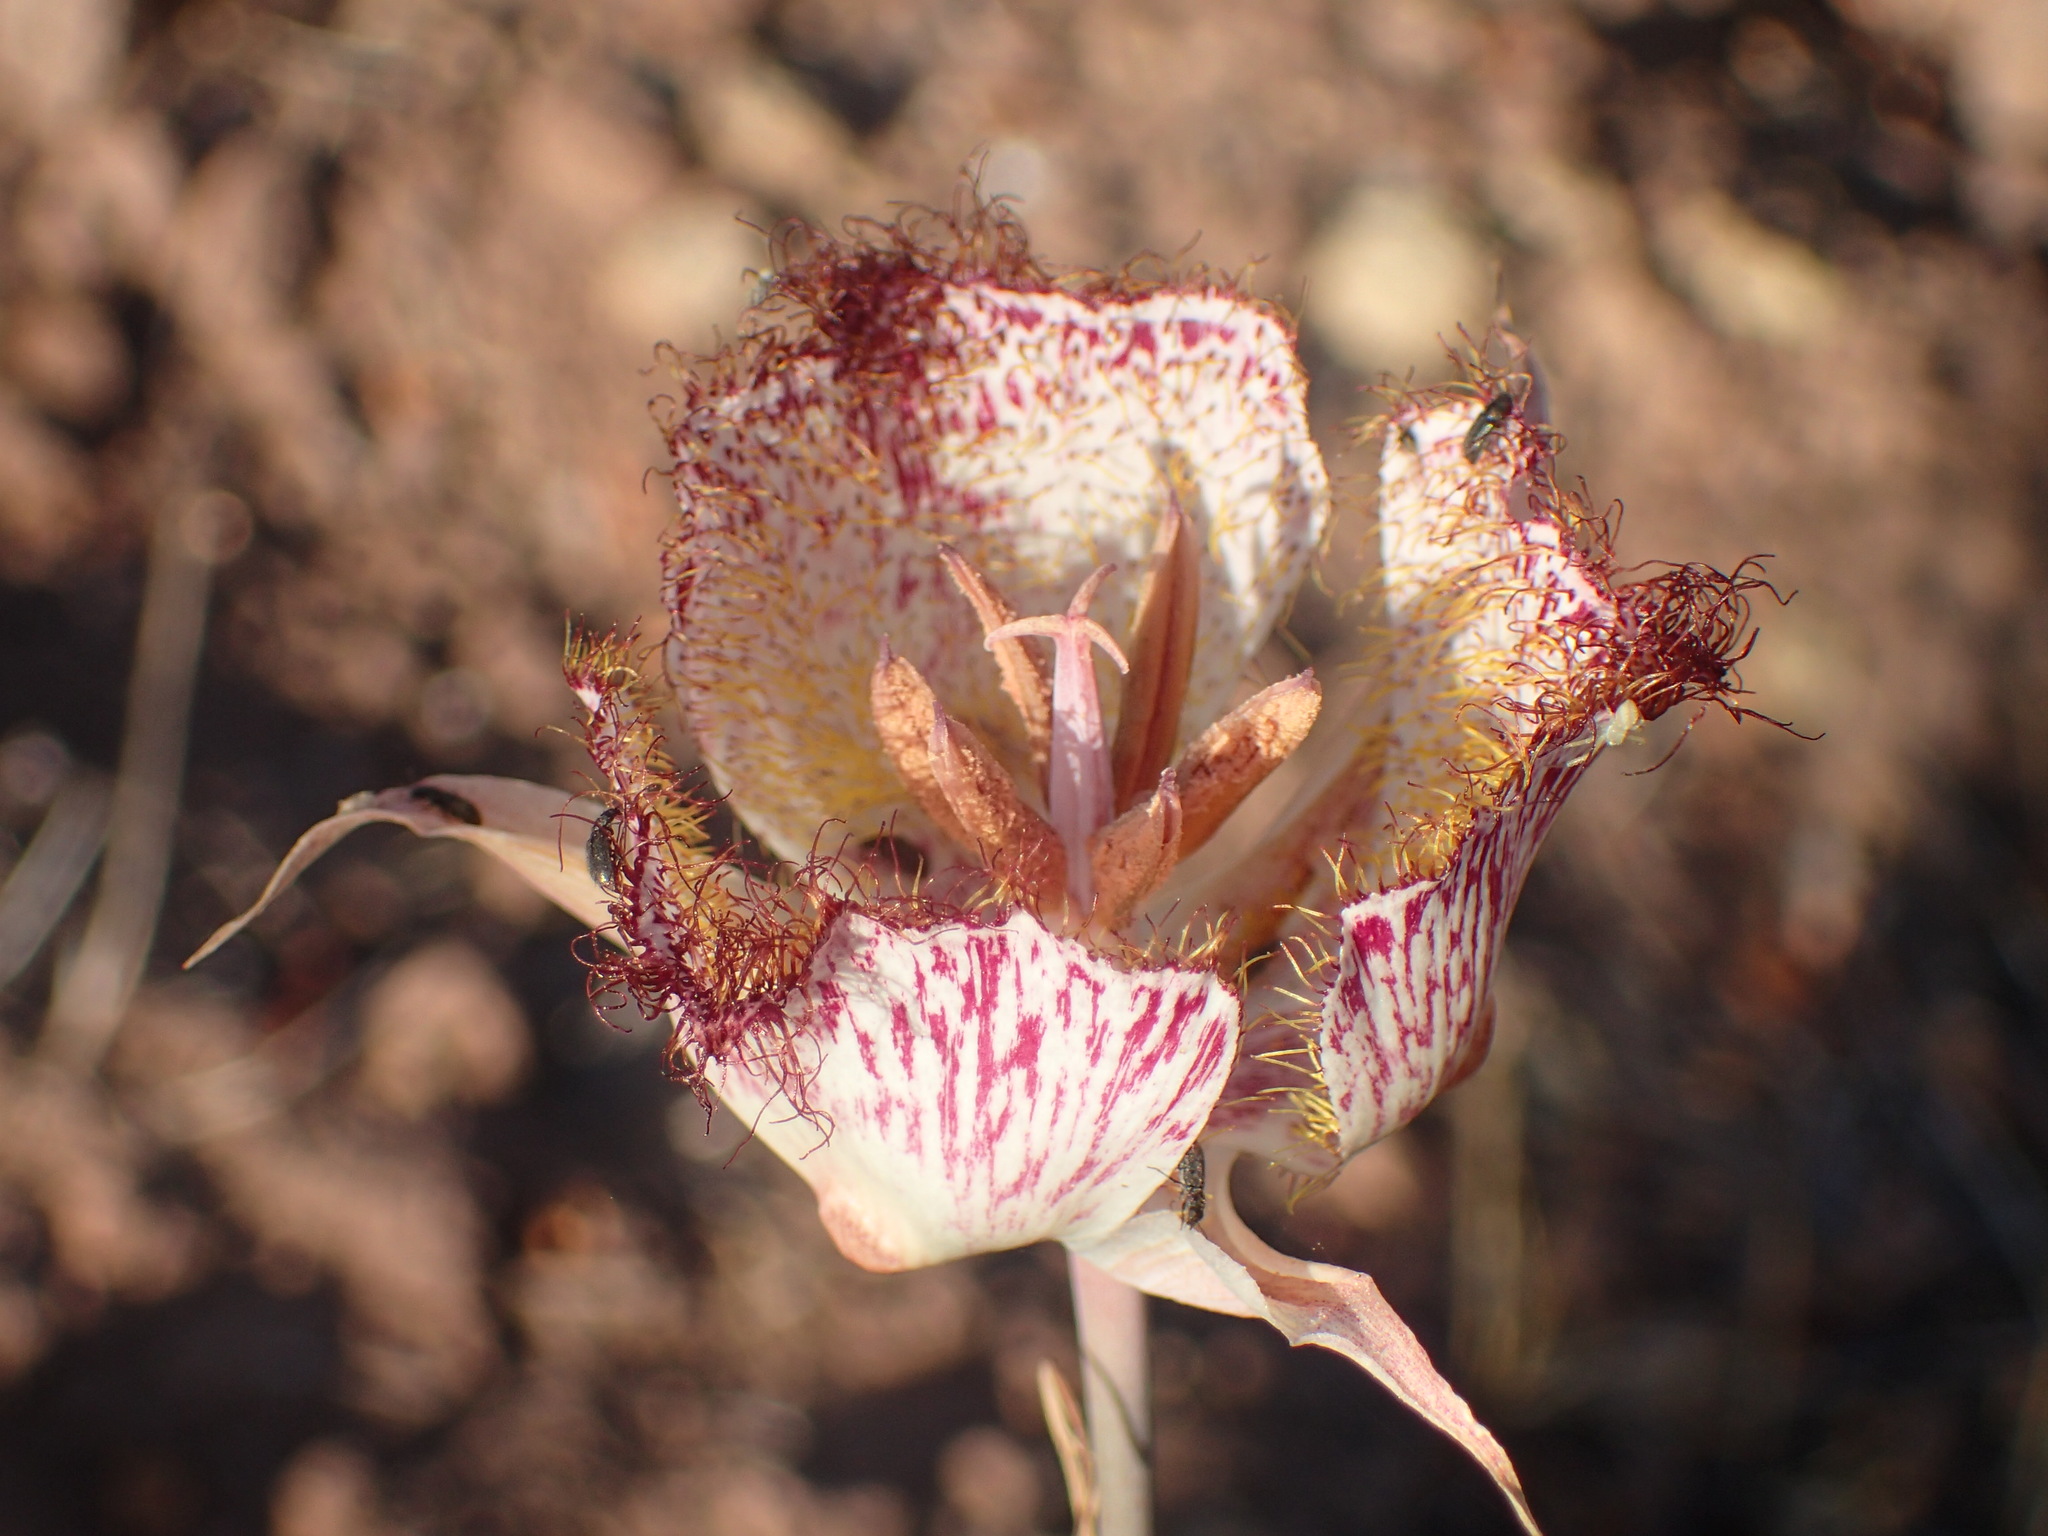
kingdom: Plantae
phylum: Tracheophyta
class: Liliopsida
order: Liliales
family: Liliaceae
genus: Calochortus
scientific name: Calochortus fimbriatus
